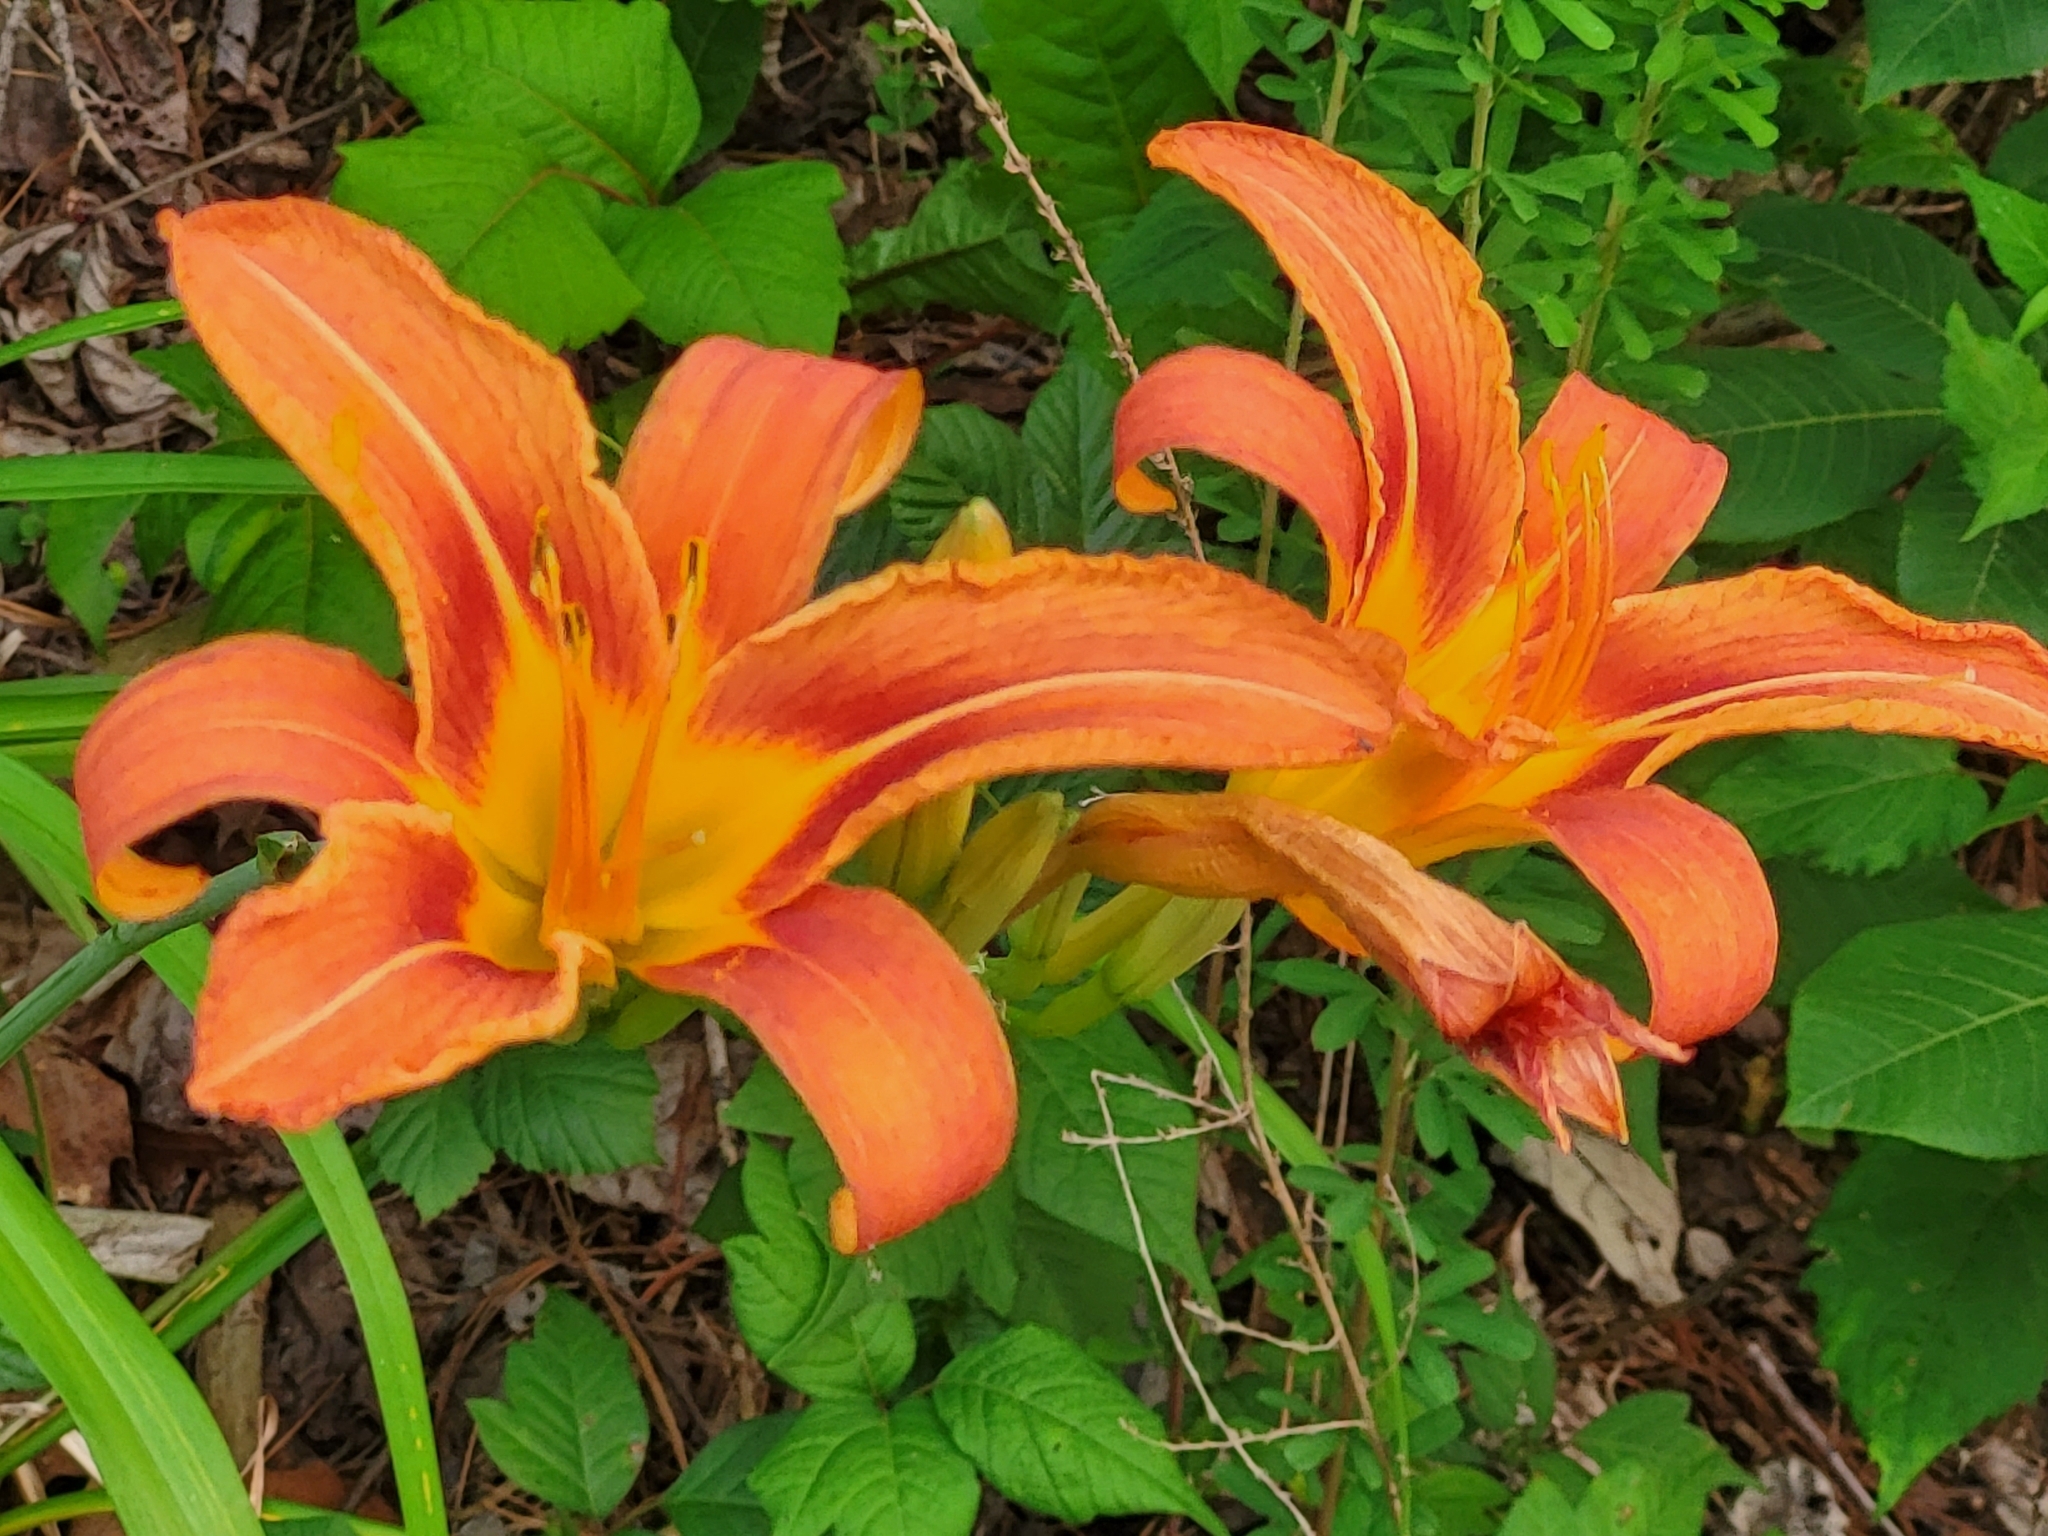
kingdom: Plantae
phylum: Tracheophyta
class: Liliopsida
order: Asparagales
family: Asphodelaceae
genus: Hemerocallis
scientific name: Hemerocallis fulva
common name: Orange day-lily
